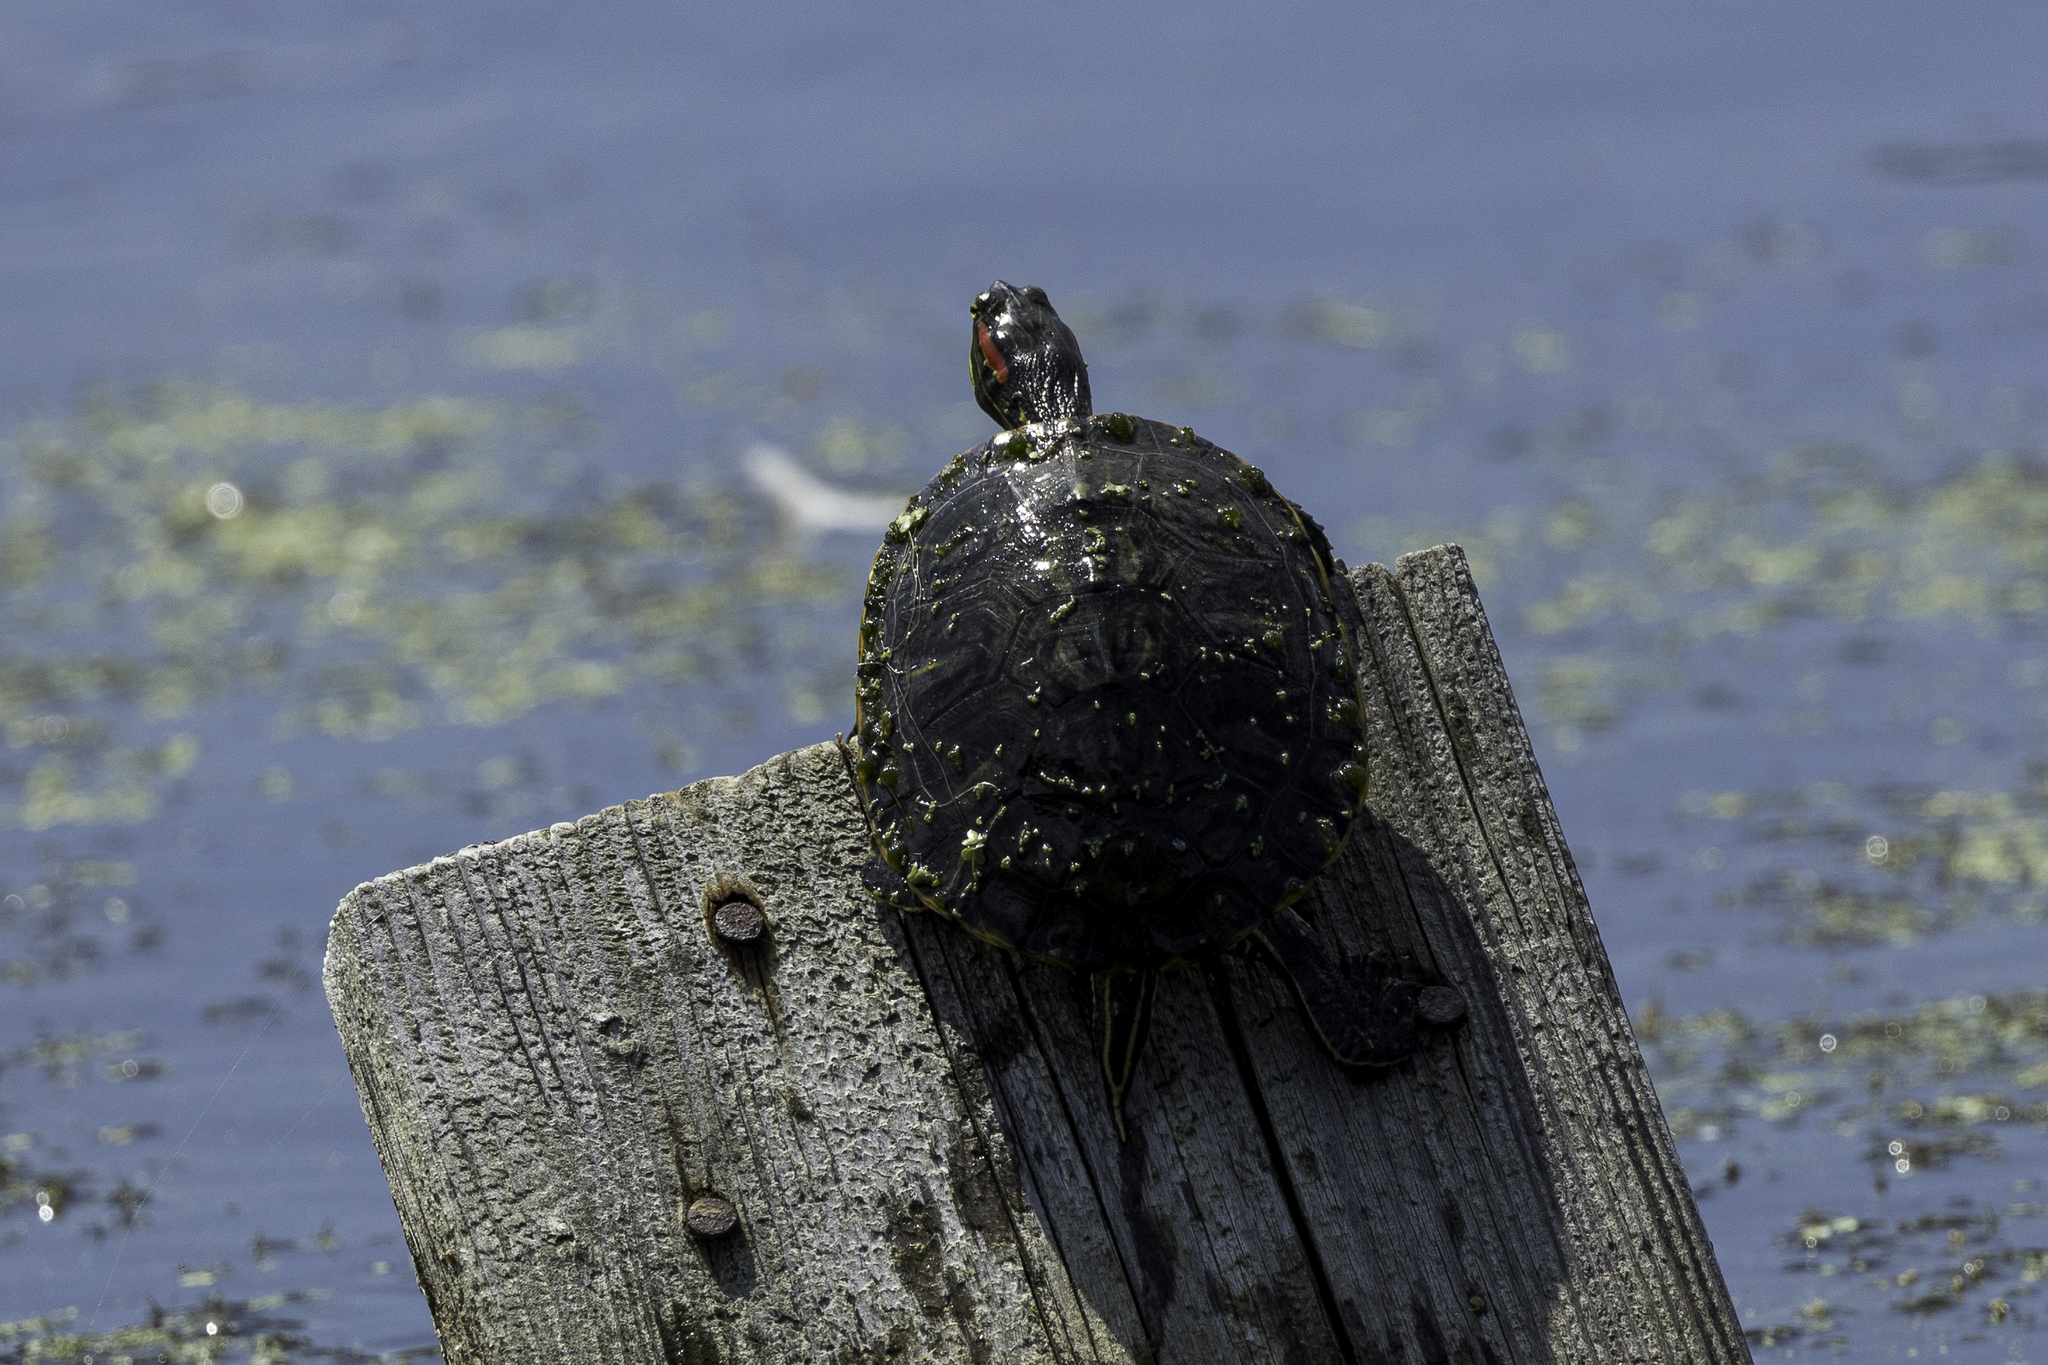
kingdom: Animalia
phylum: Chordata
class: Testudines
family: Emydidae
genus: Trachemys
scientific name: Trachemys scripta
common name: Slider
